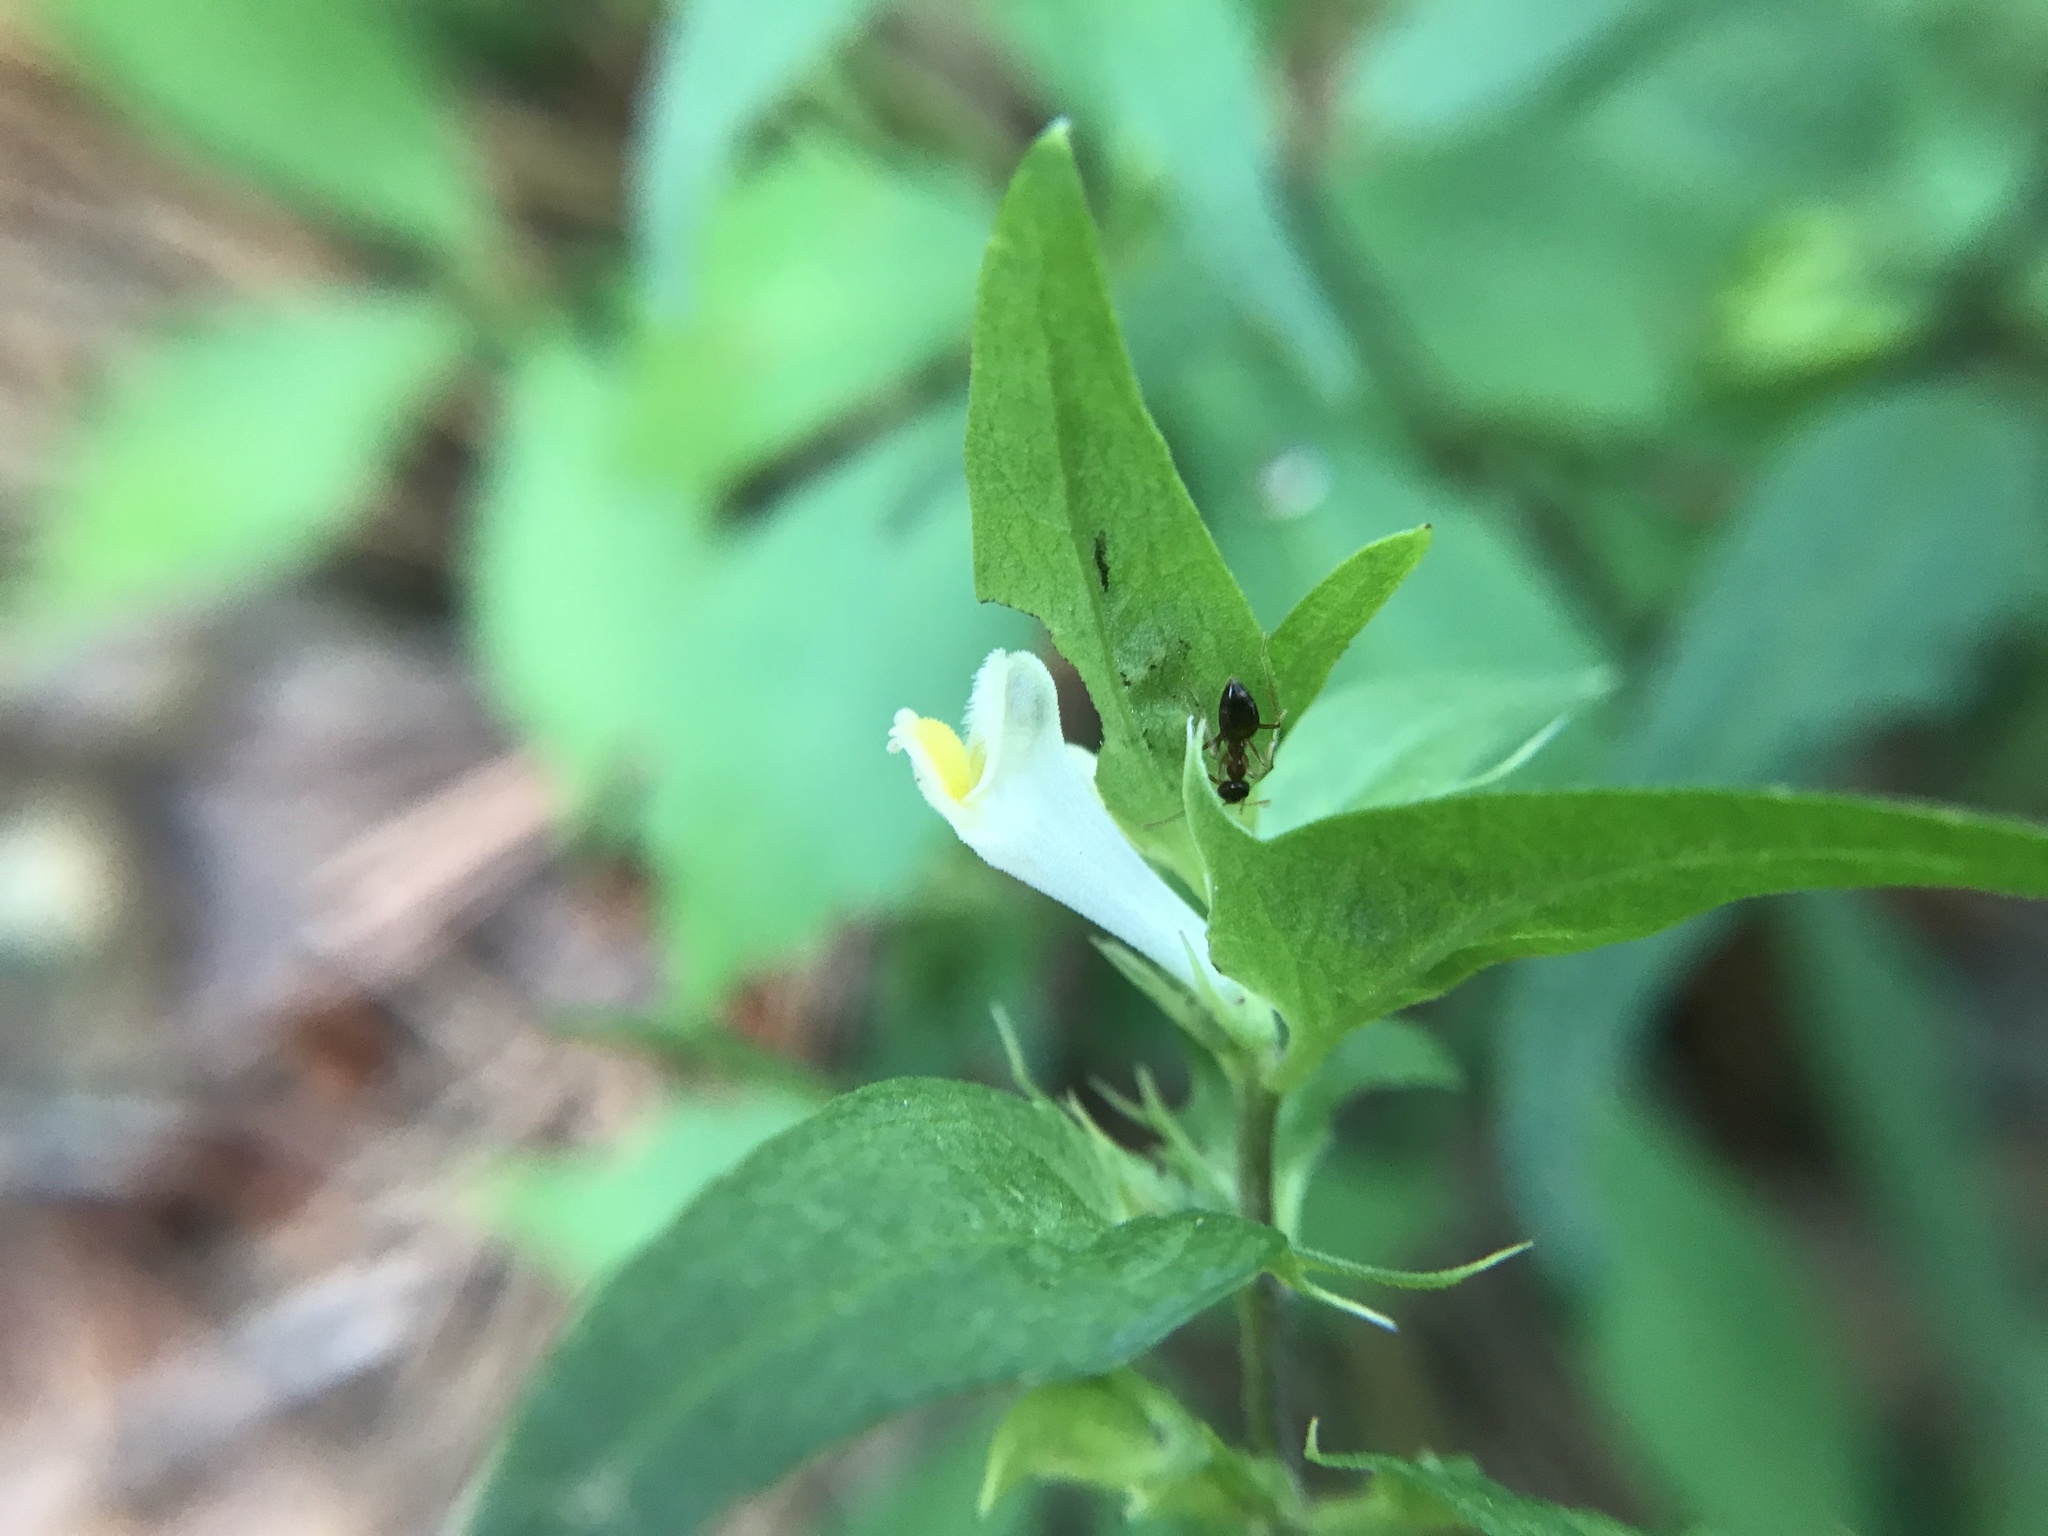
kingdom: Plantae
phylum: Tracheophyta
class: Magnoliopsida
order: Lamiales
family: Orobanchaceae
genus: Melampyrum
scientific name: Melampyrum lineare
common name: American cow-wheat
